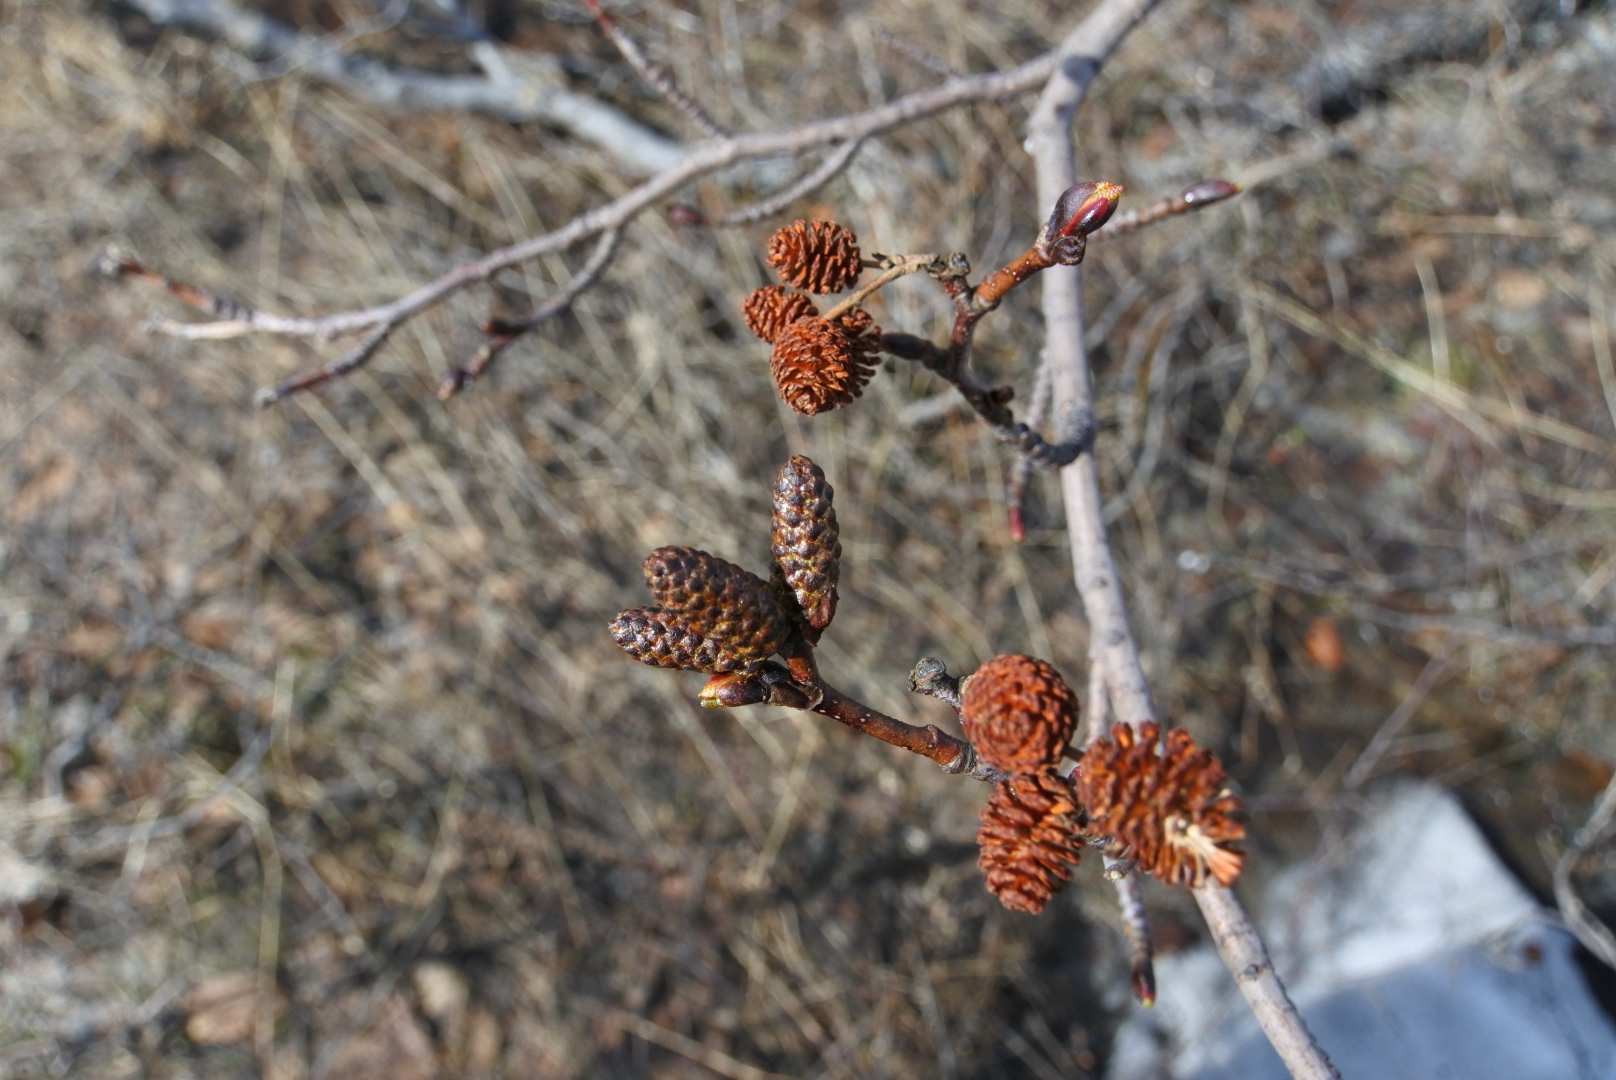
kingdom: Plantae
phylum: Tracheophyta
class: Magnoliopsida
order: Fagales
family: Betulaceae
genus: Alnus
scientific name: Alnus alnobetula
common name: Green alder
